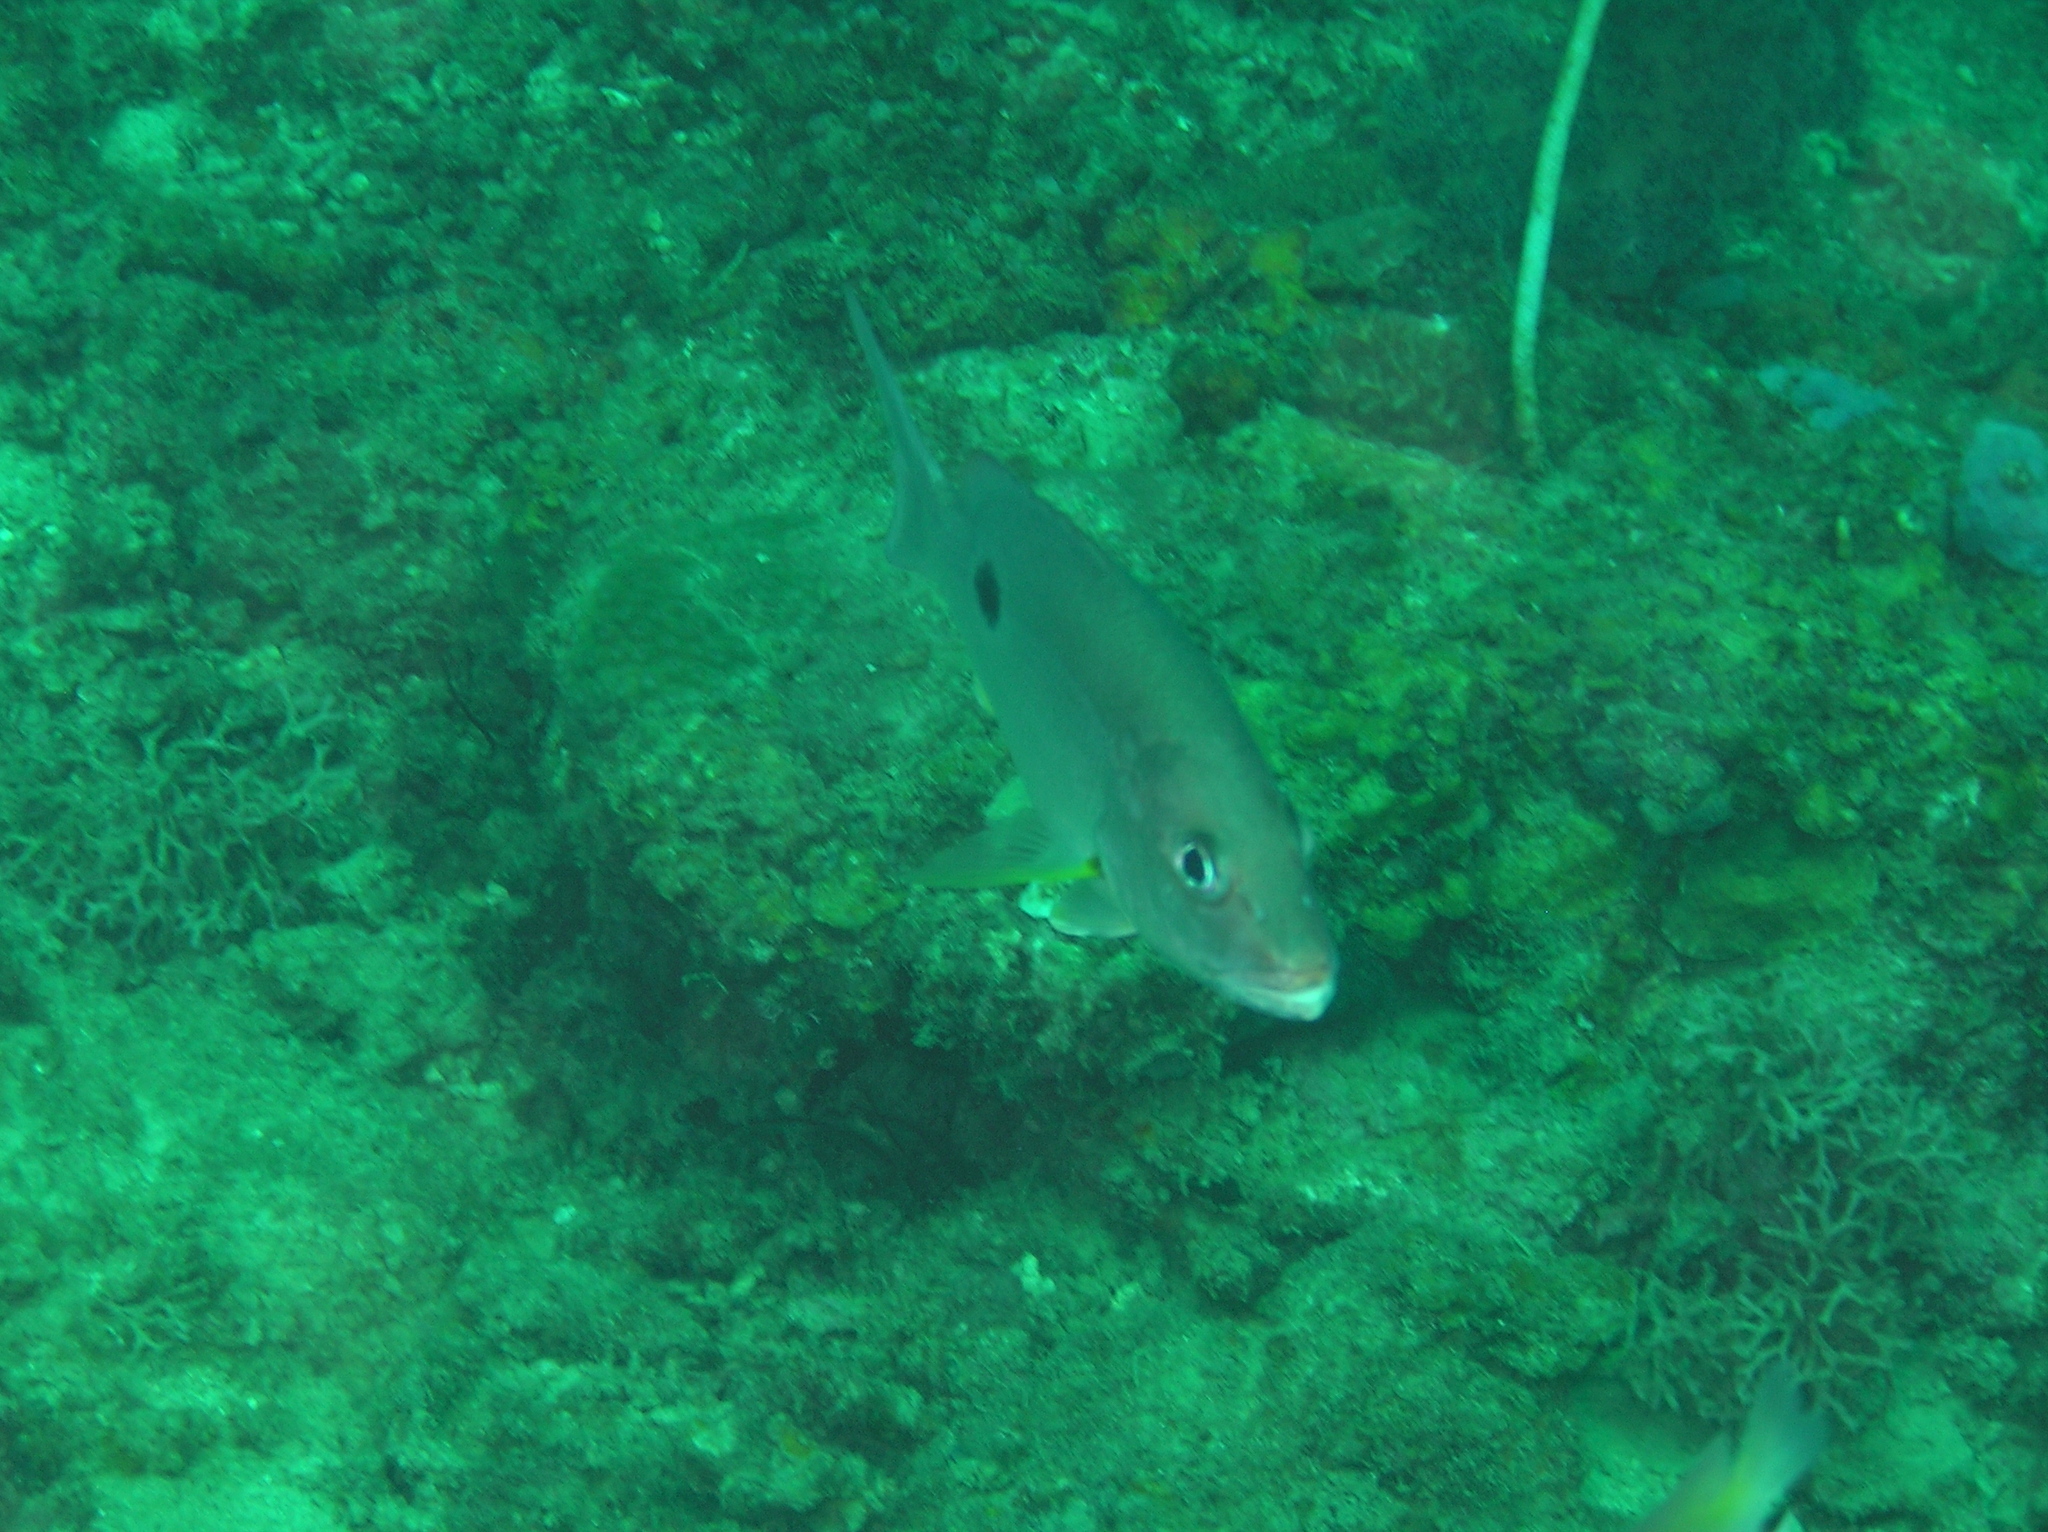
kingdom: Animalia
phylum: Chordata
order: Perciformes
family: Lutjanidae
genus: Lutjanus
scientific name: Lutjanus russellii
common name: Russell's snapper
